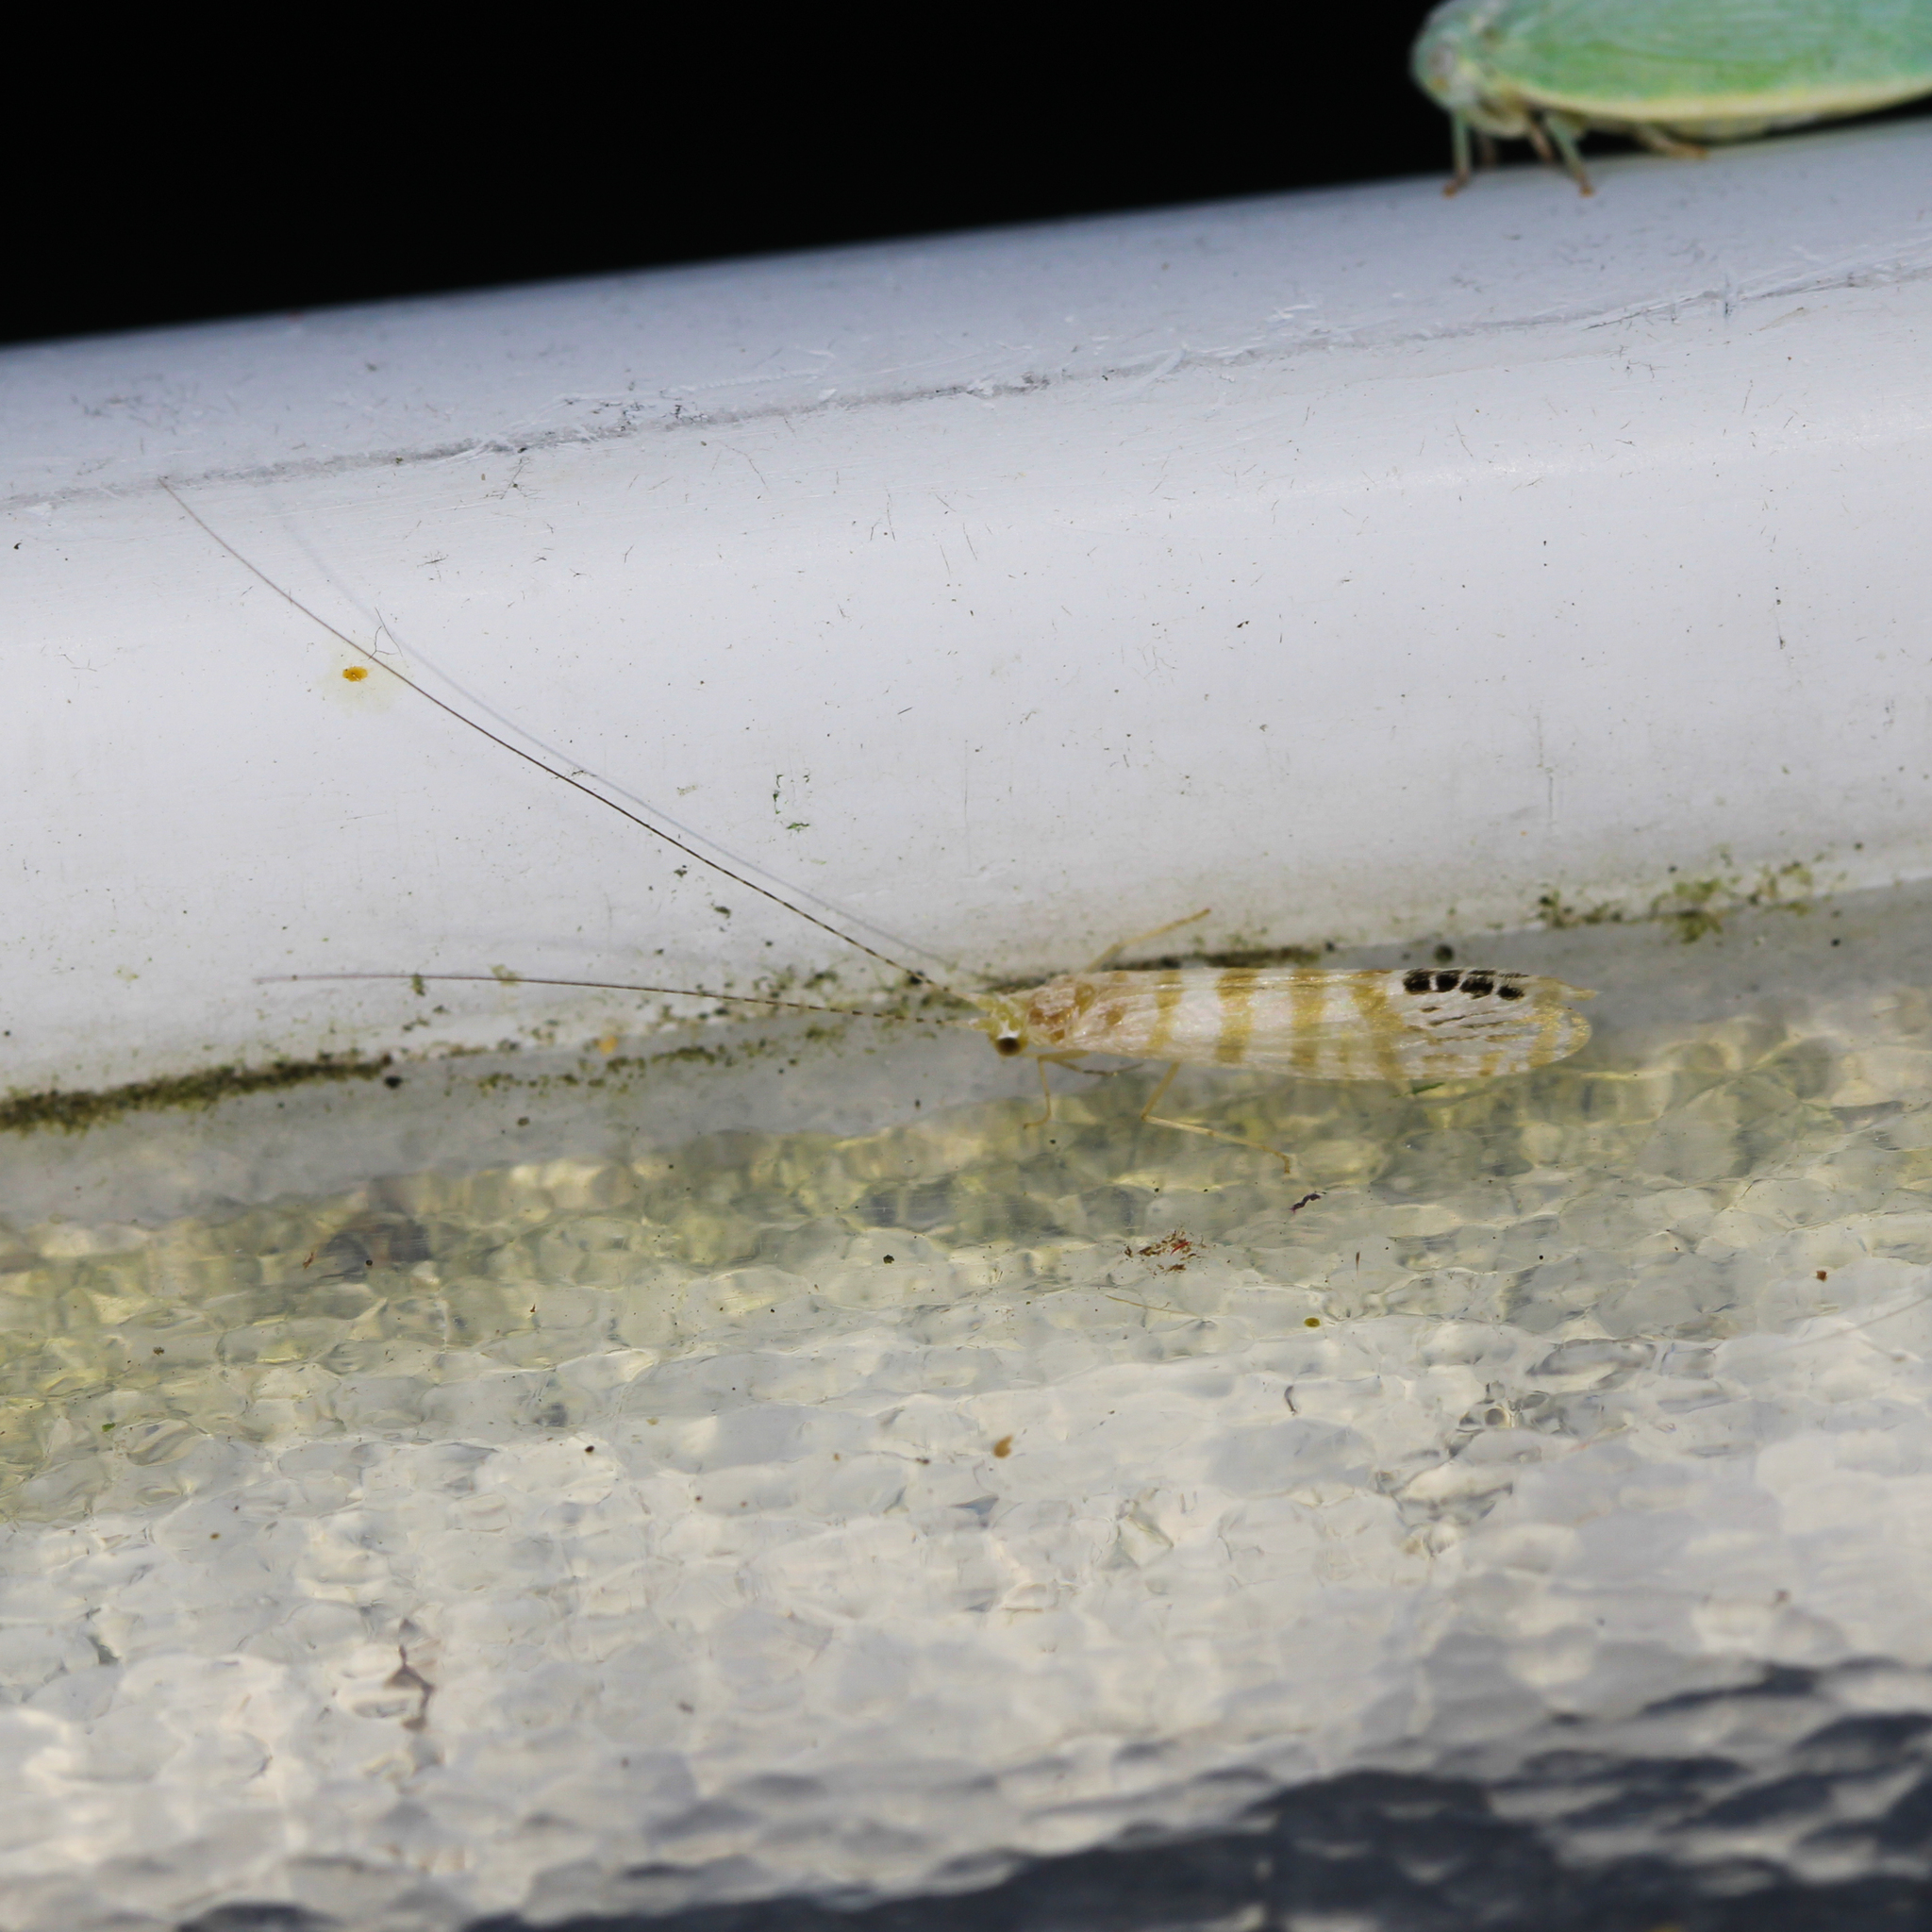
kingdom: Animalia
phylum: Arthropoda
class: Insecta
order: Trichoptera
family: Leptoceridae
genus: Nectopsyche
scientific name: Nectopsyche exquisita
